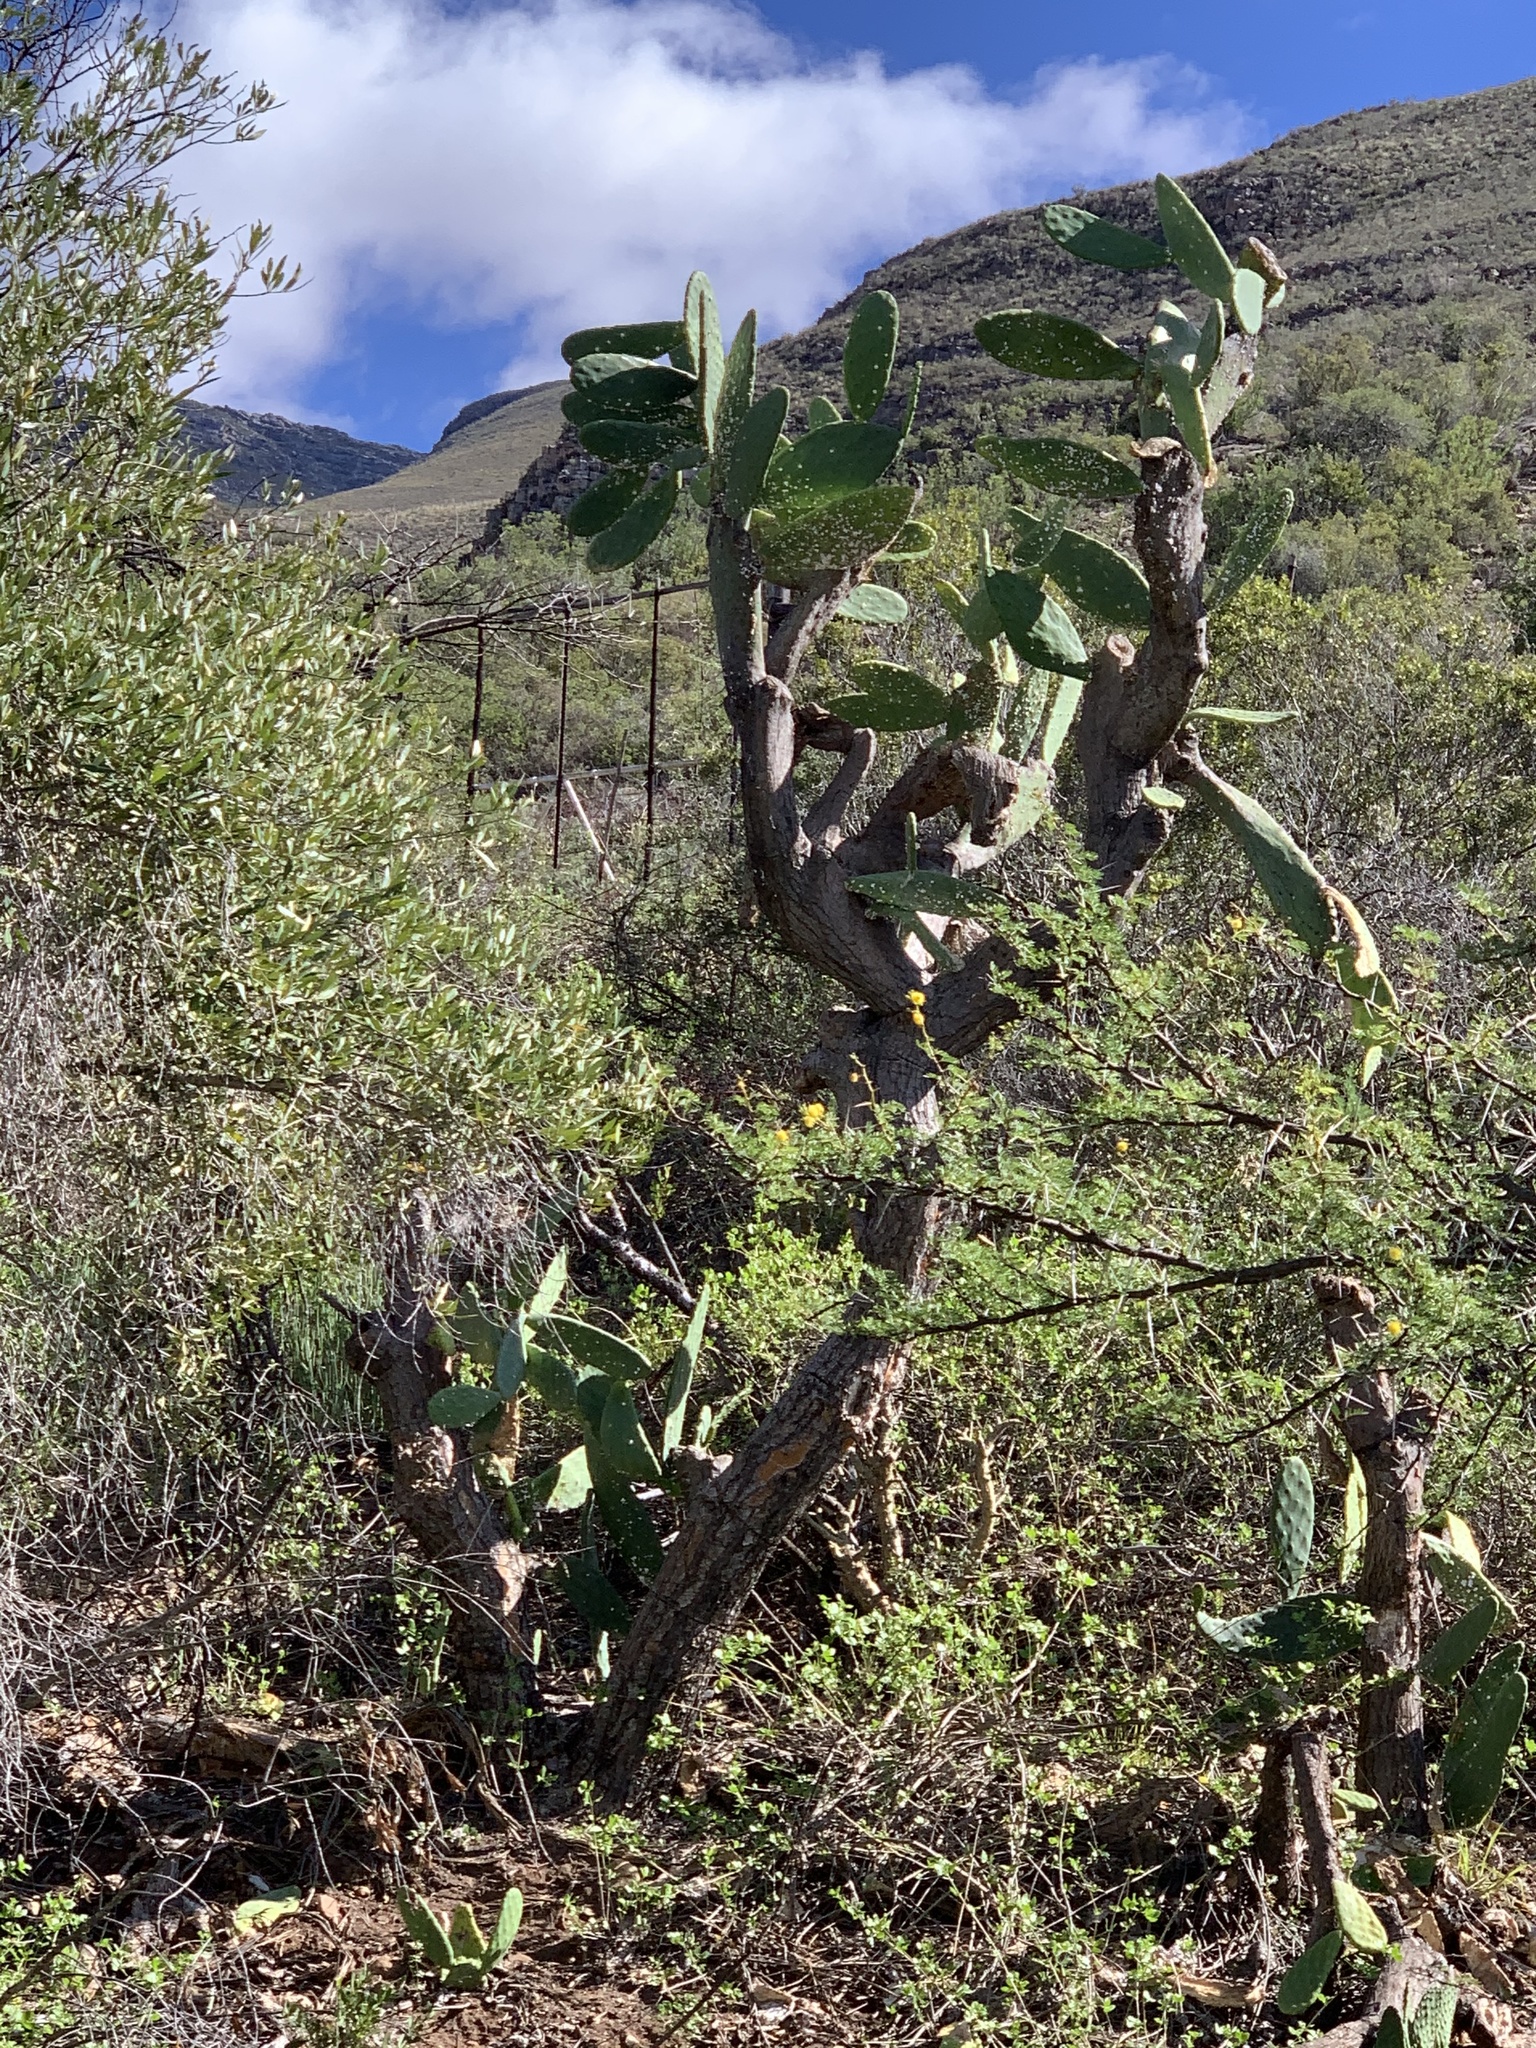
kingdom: Plantae
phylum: Tracheophyta
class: Magnoliopsida
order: Caryophyllales
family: Cactaceae
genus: Opuntia
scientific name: Opuntia ficus-indica
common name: Barbary fig
